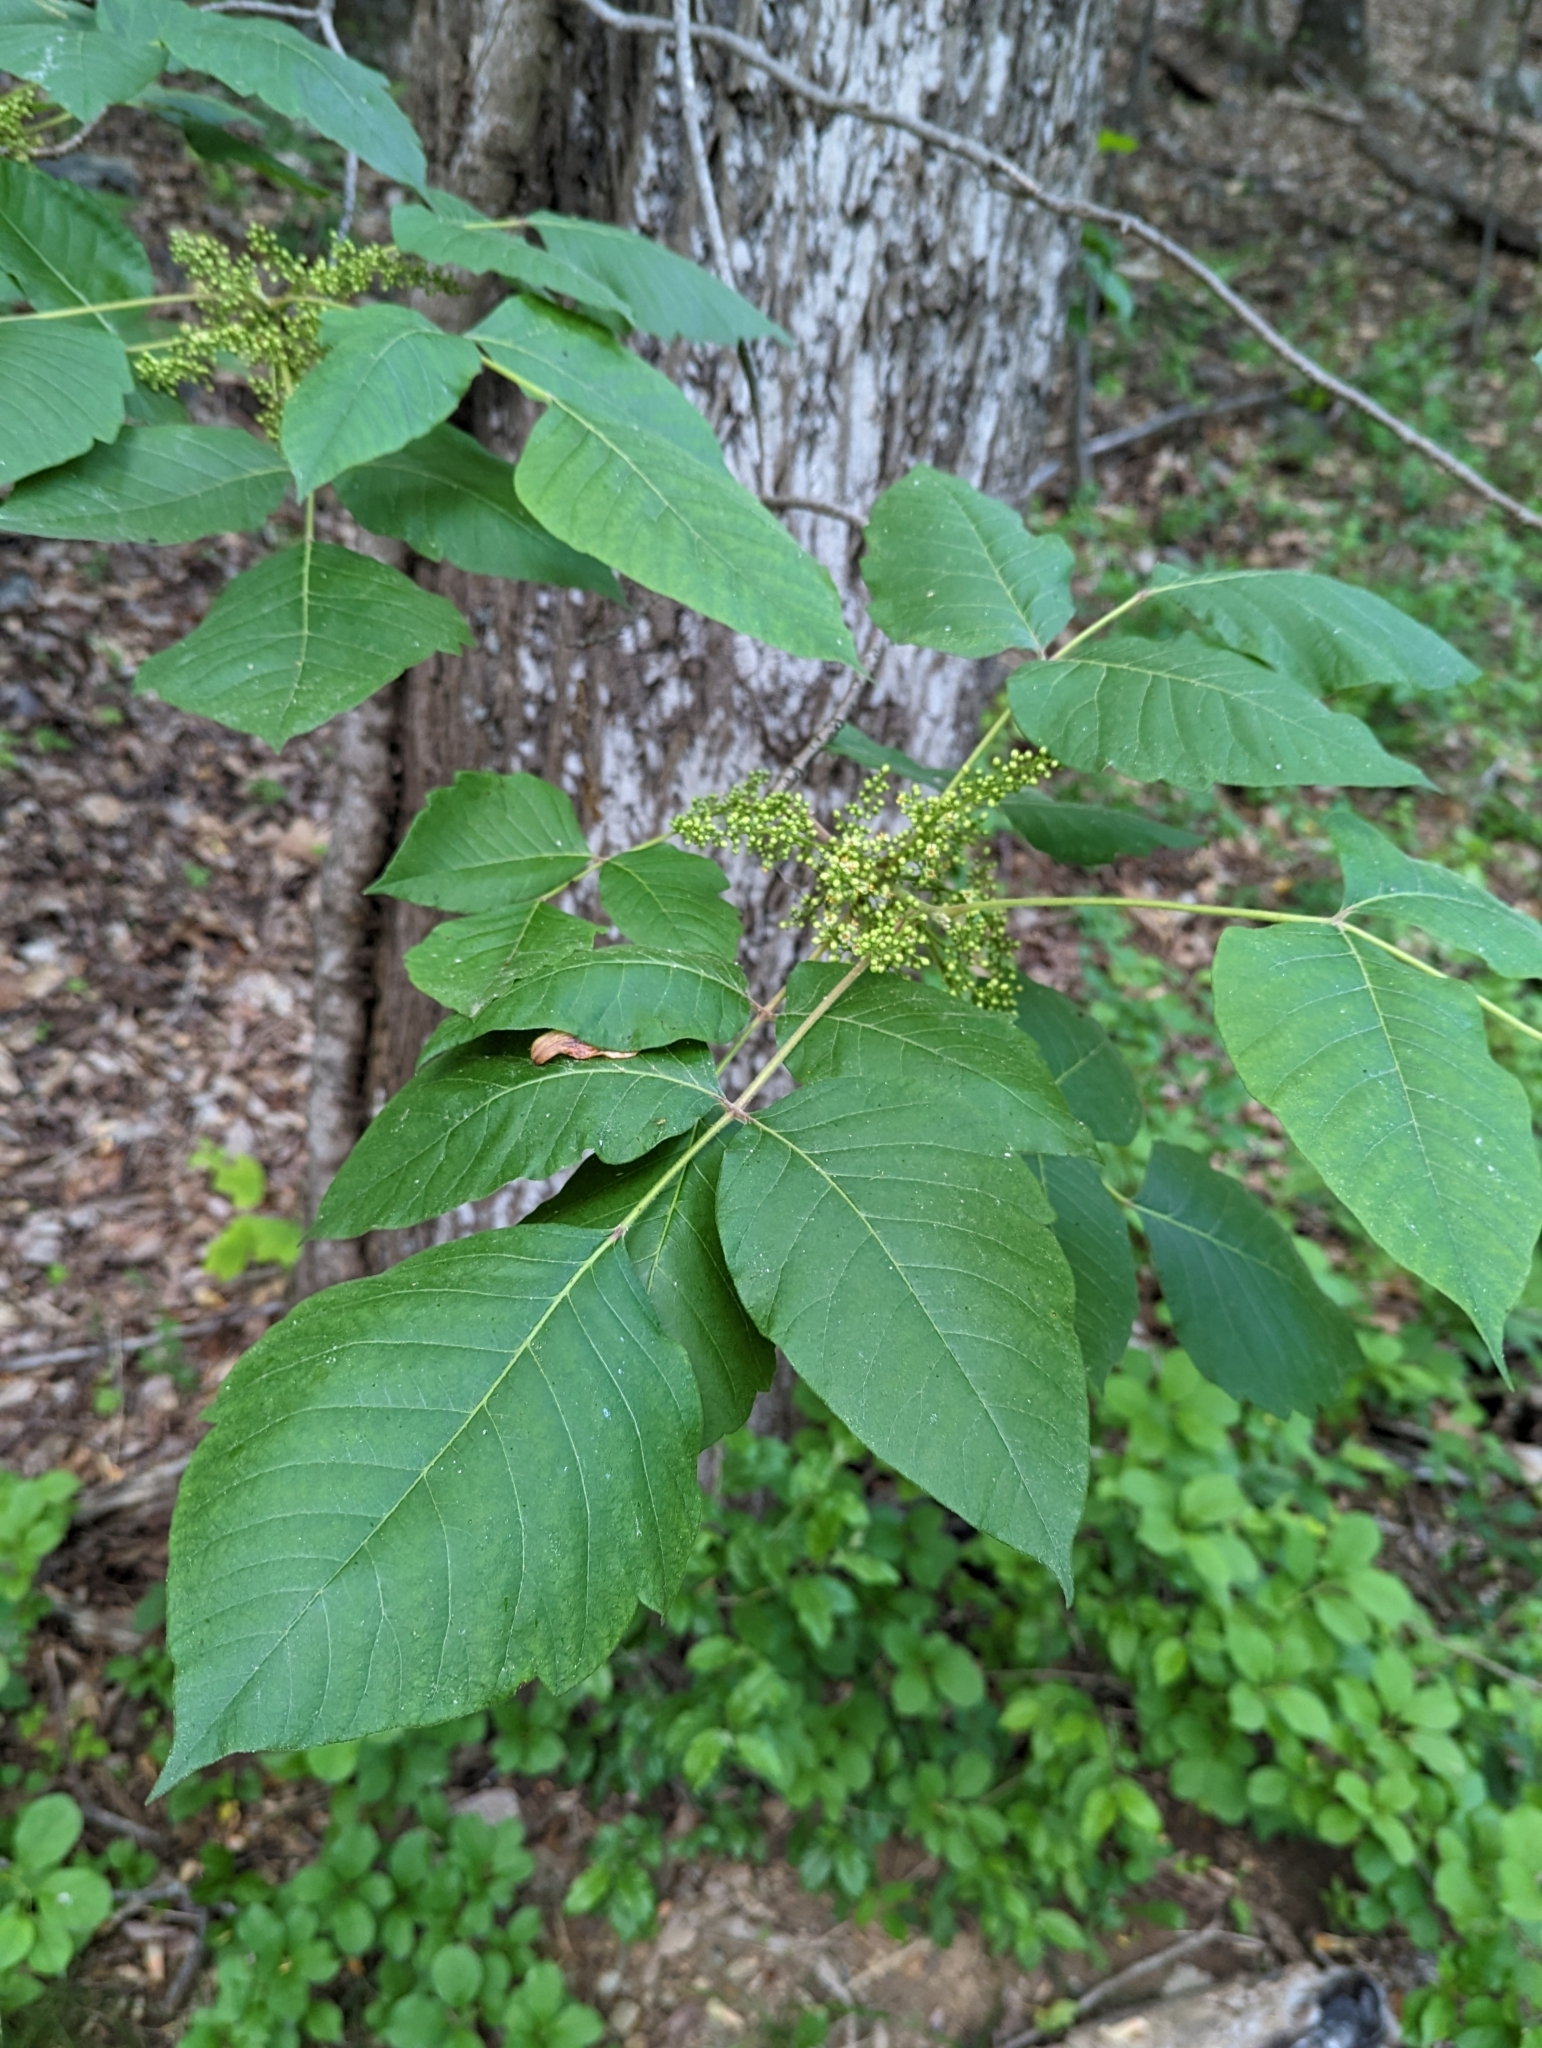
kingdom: Plantae
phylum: Tracheophyta
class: Magnoliopsida
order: Sapindales
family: Anacardiaceae
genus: Toxicodendron
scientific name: Toxicodendron radicans
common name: Poison ivy
